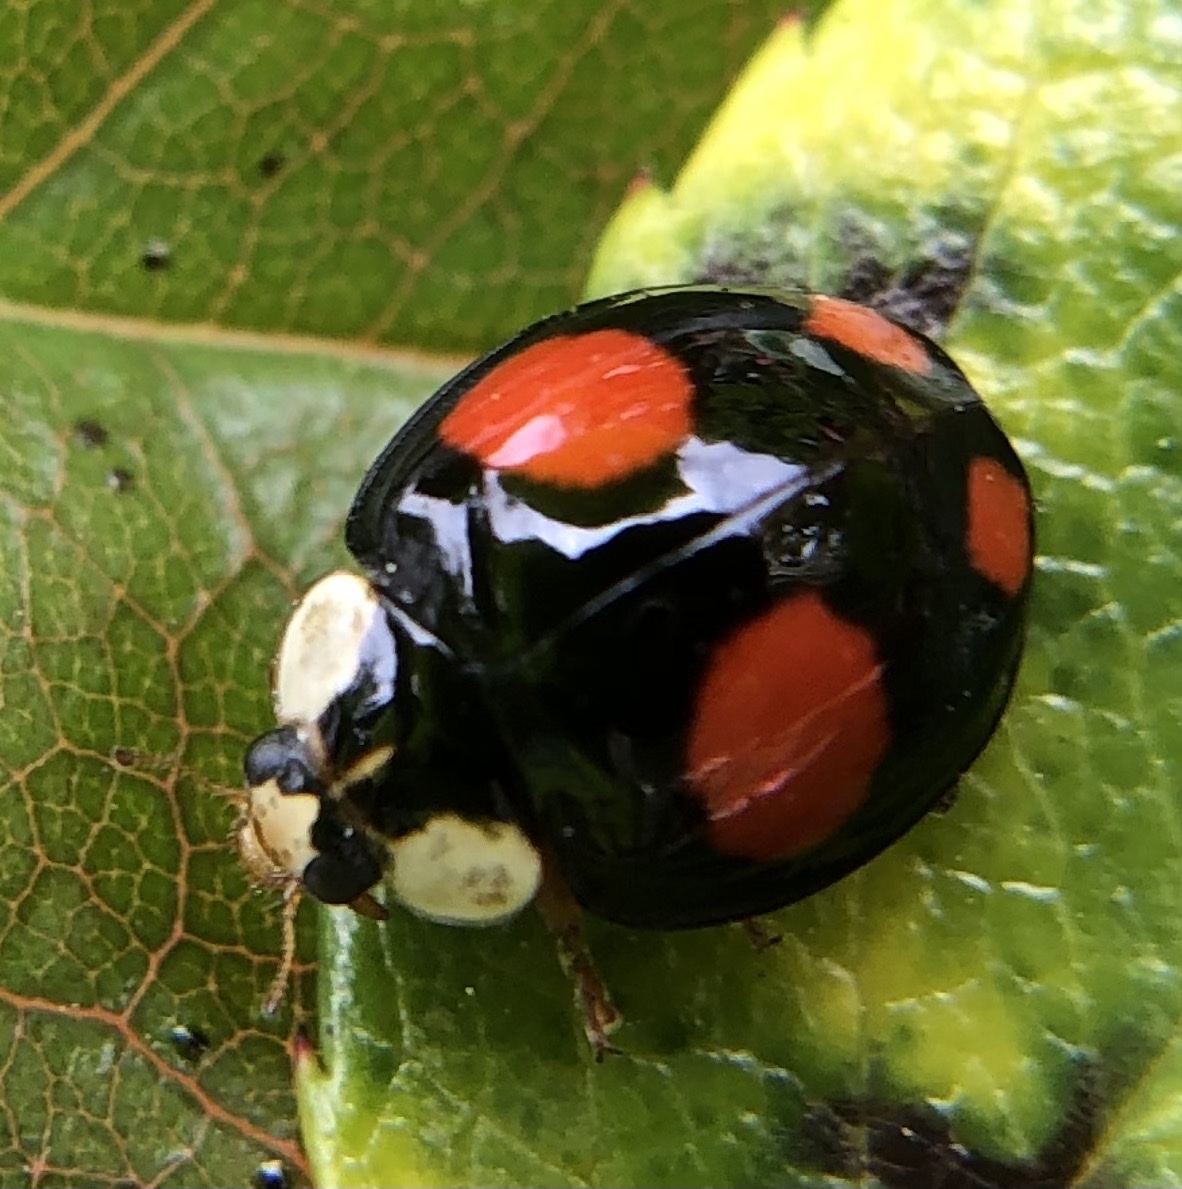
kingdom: Animalia
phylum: Arthropoda
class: Insecta
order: Coleoptera
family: Coccinellidae
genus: Harmonia
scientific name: Harmonia axyridis
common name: Harlequin ladybird
